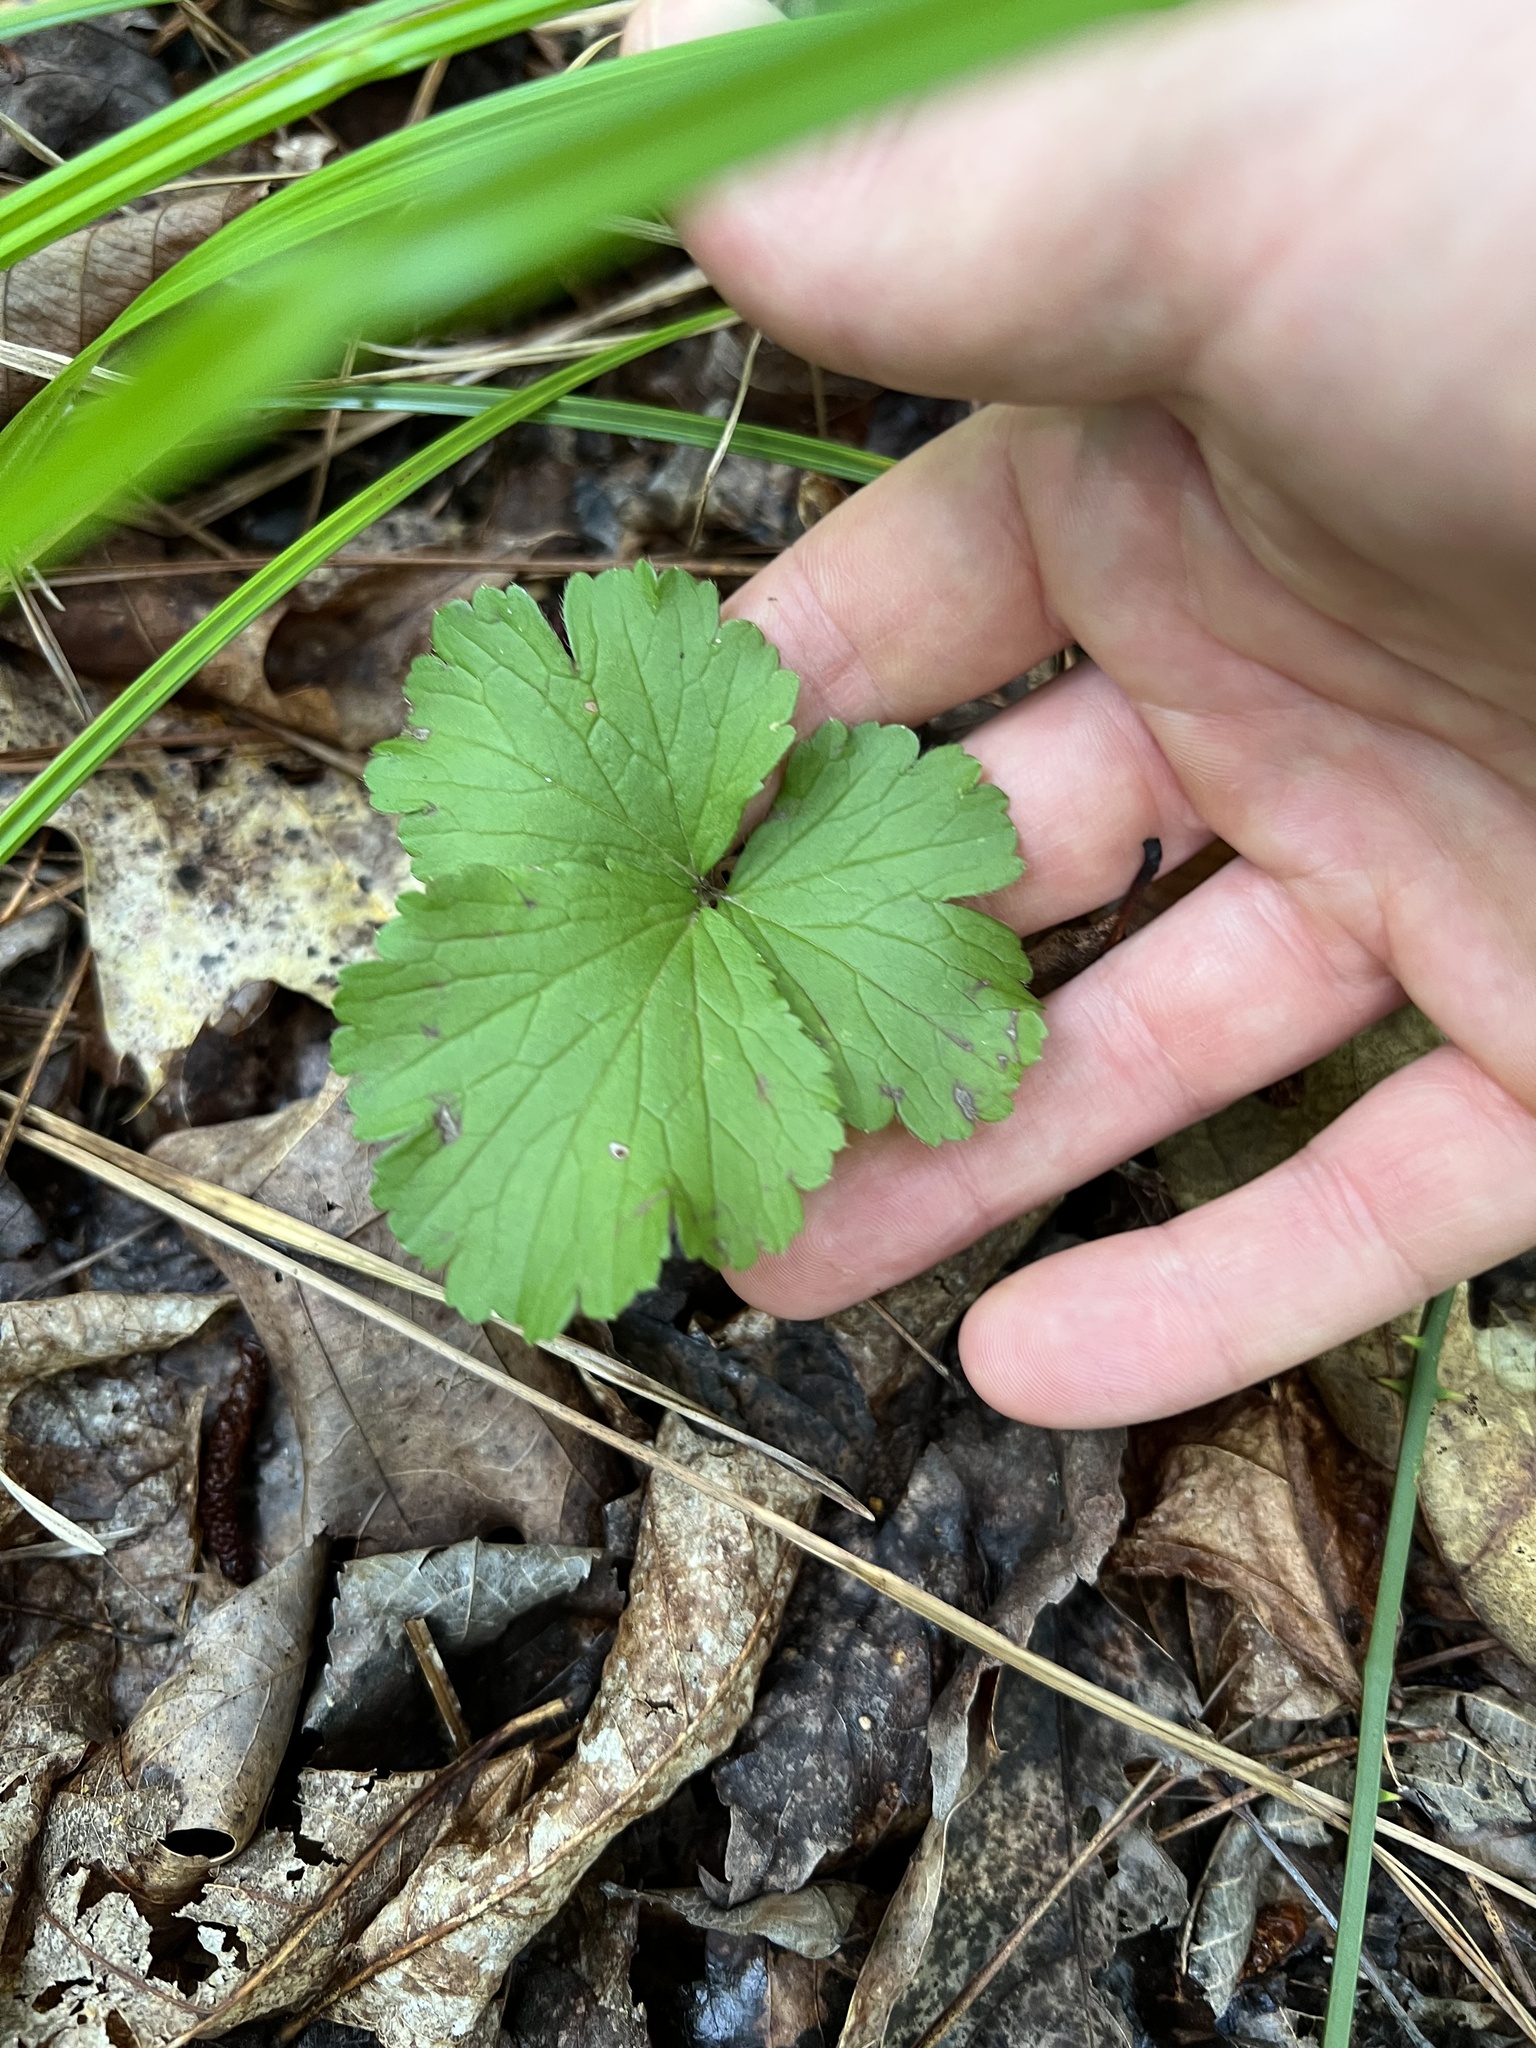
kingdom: Plantae
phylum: Tracheophyta
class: Magnoliopsida
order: Rosales
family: Rosaceae
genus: Geum
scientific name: Geum fragarioides
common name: Appalachian barren strawberry
